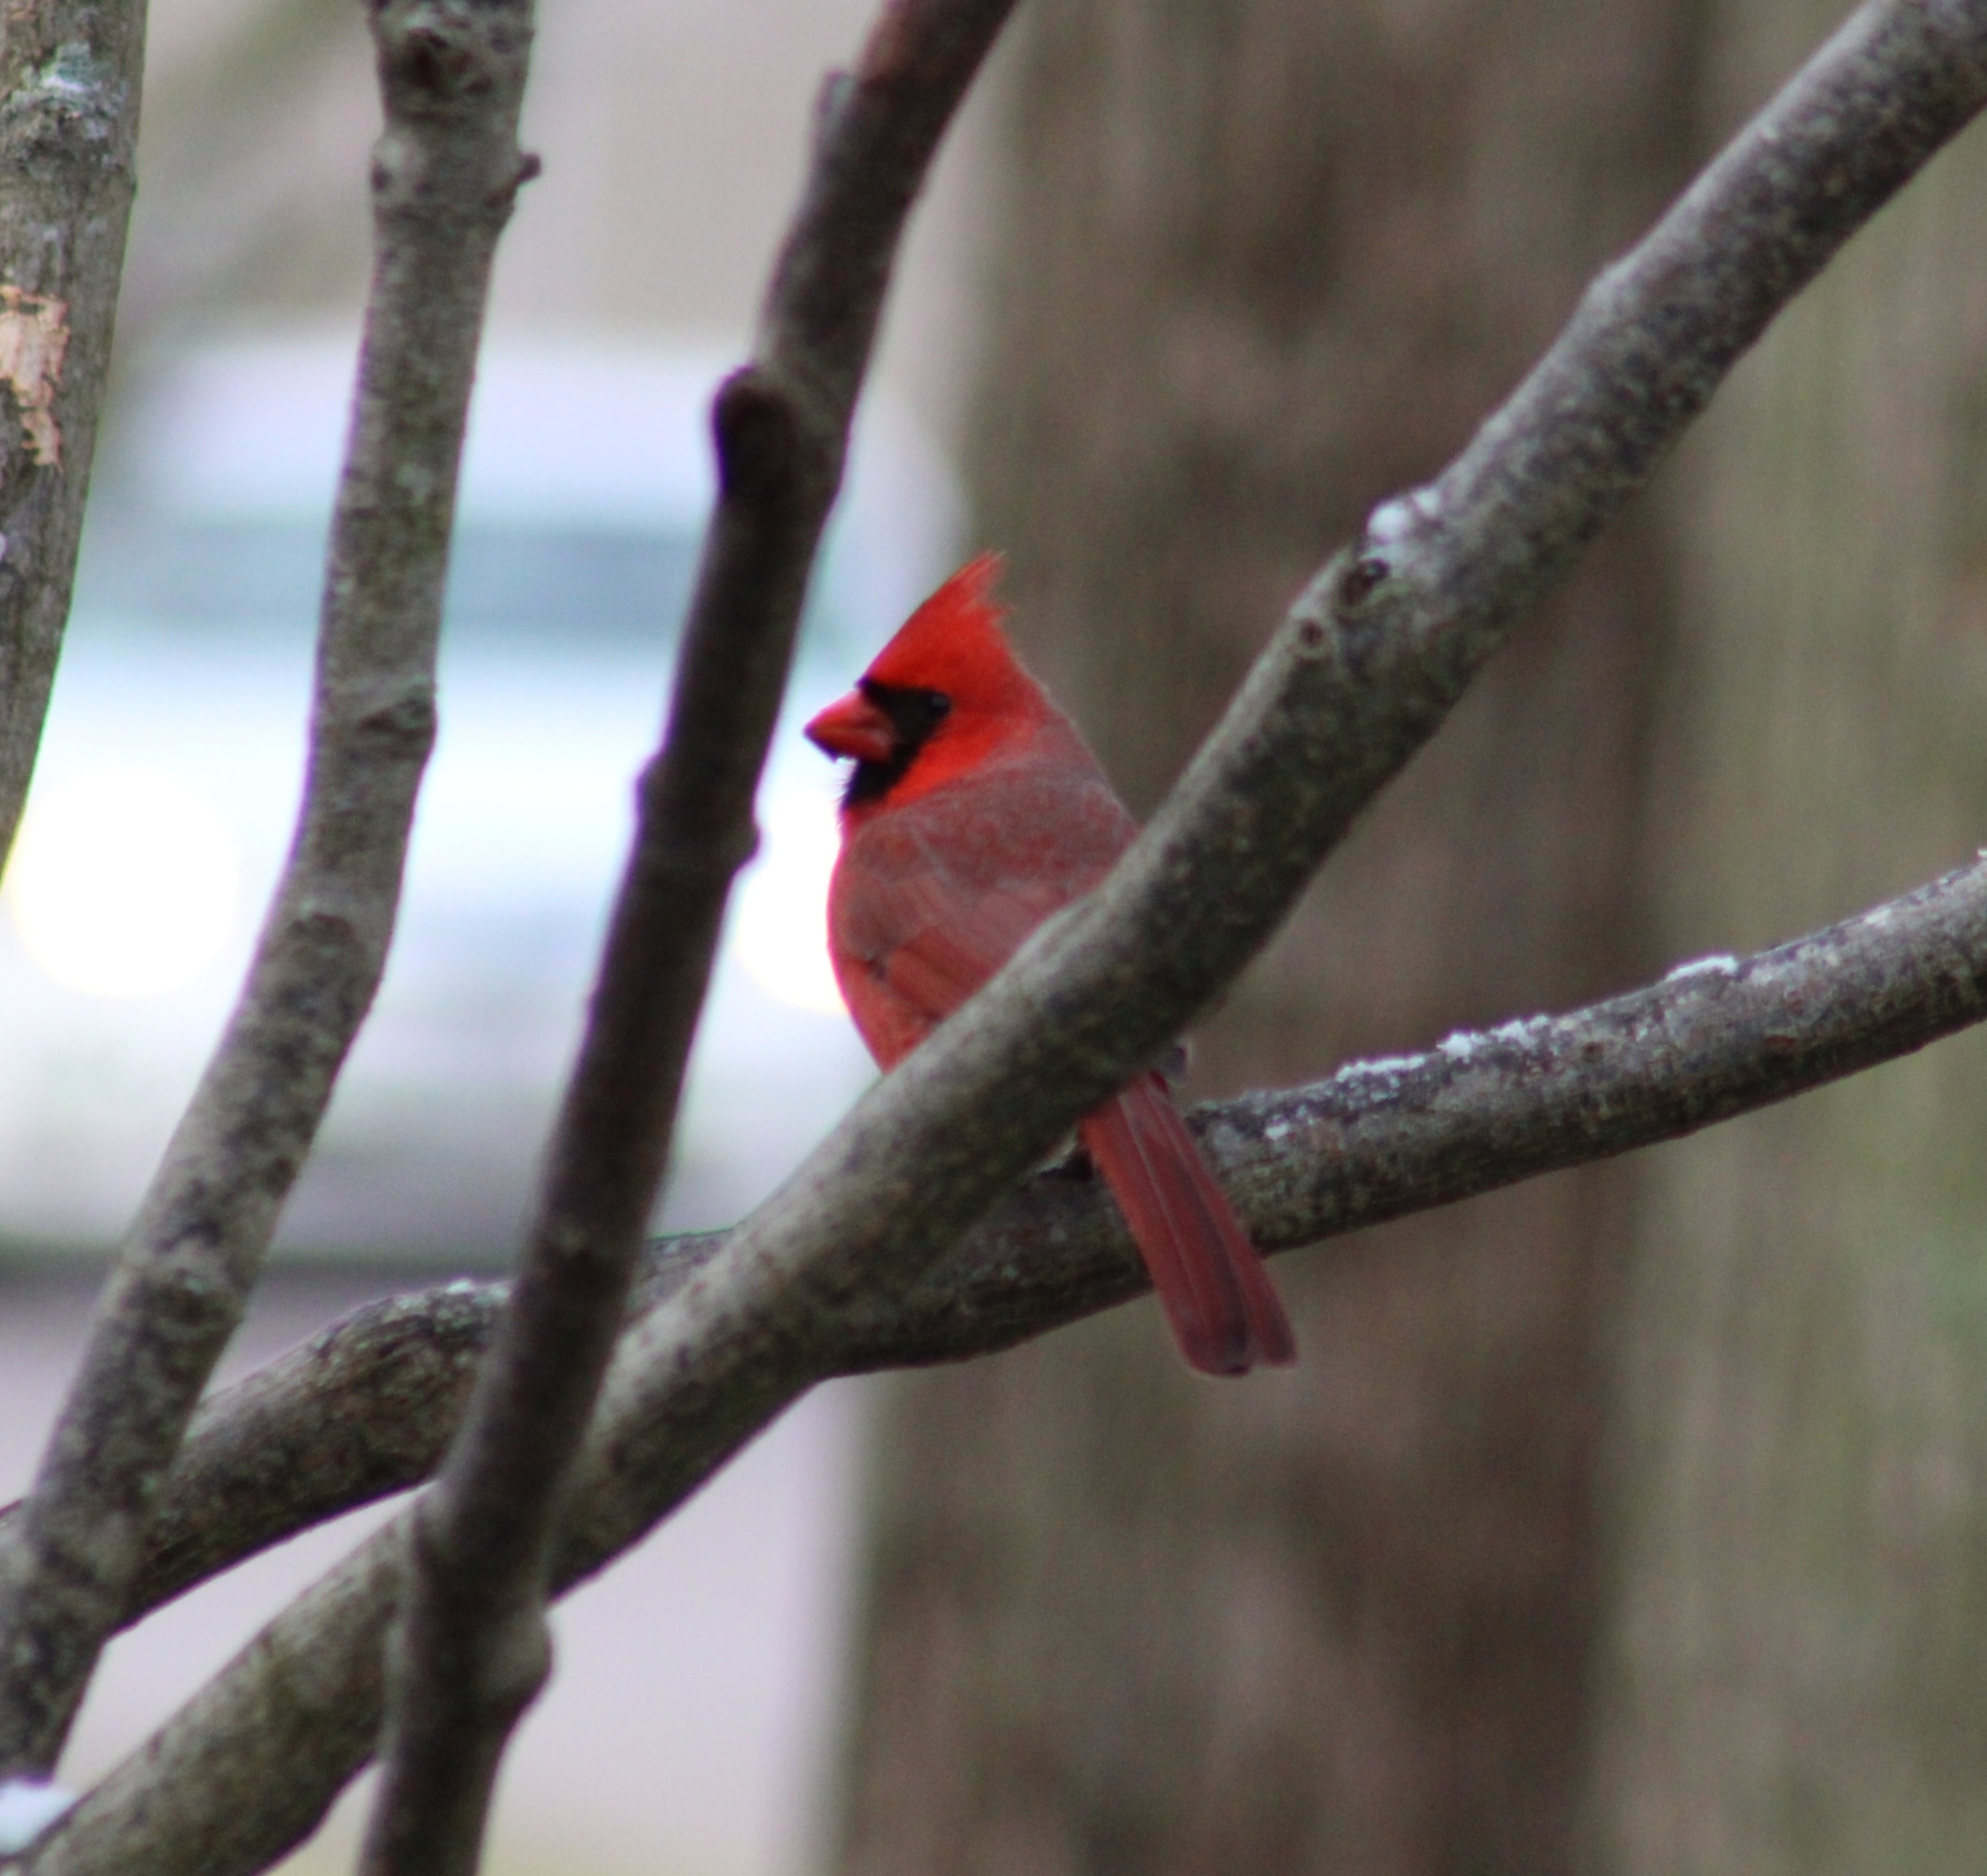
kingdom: Animalia
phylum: Chordata
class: Aves
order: Passeriformes
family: Cardinalidae
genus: Cardinalis
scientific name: Cardinalis cardinalis
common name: Northern cardinal
